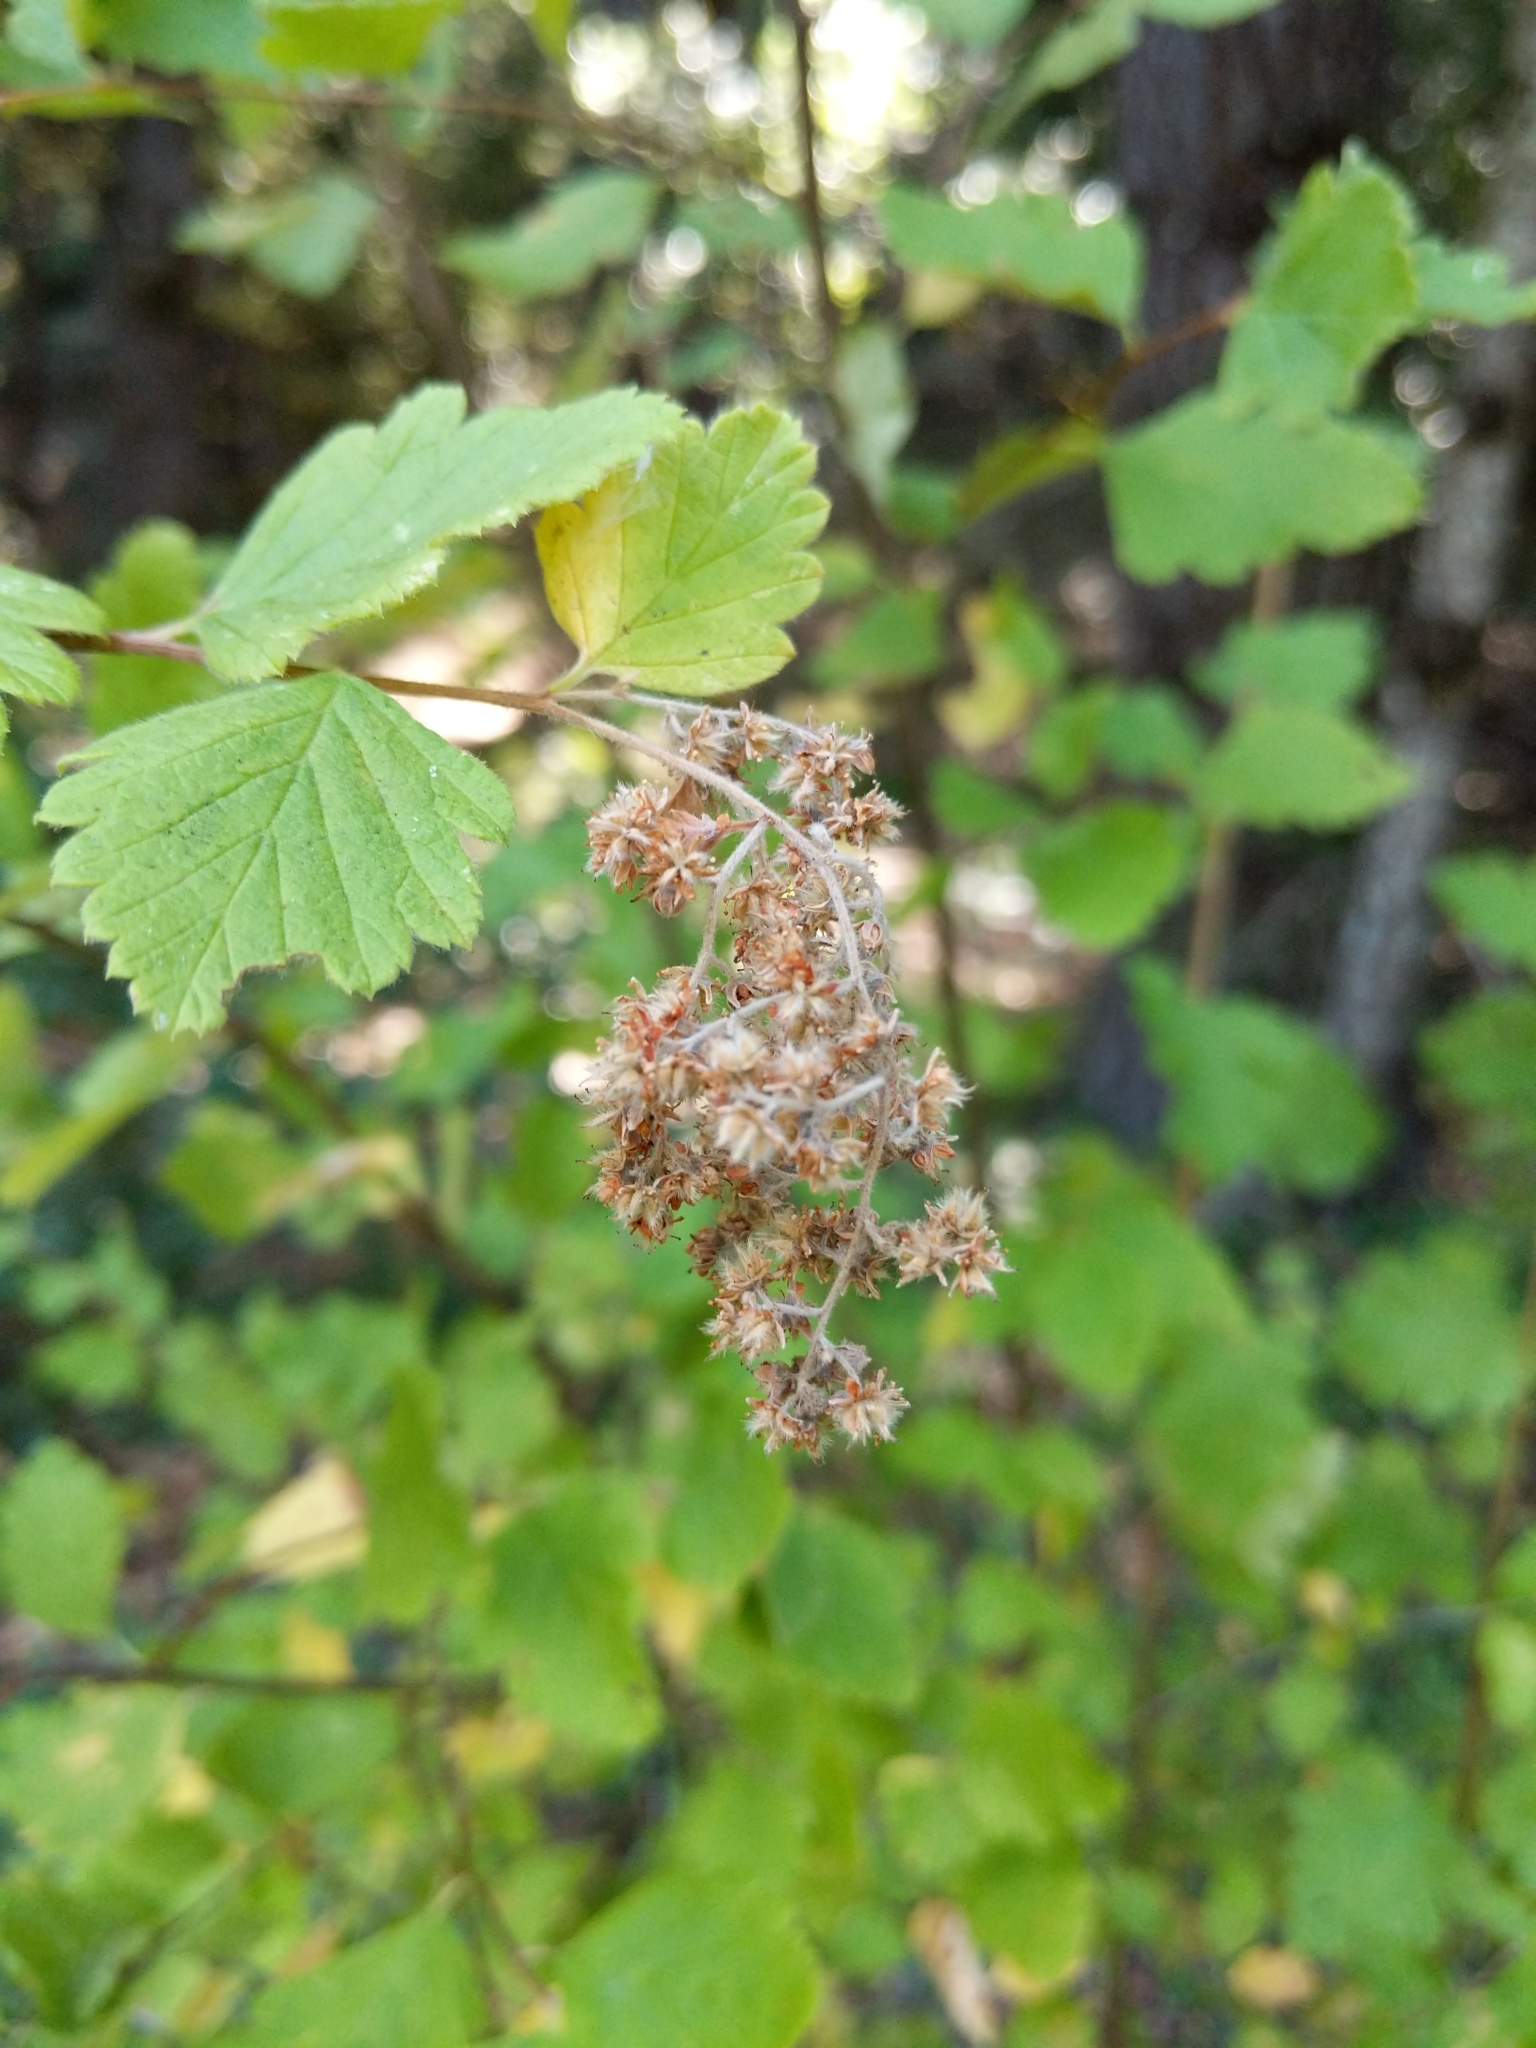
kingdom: Plantae
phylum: Tracheophyta
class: Magnoliopsida
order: Rosales
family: Rosaceae
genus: Holodiscus
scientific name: Holodiscus discolor
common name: Oceanspray
